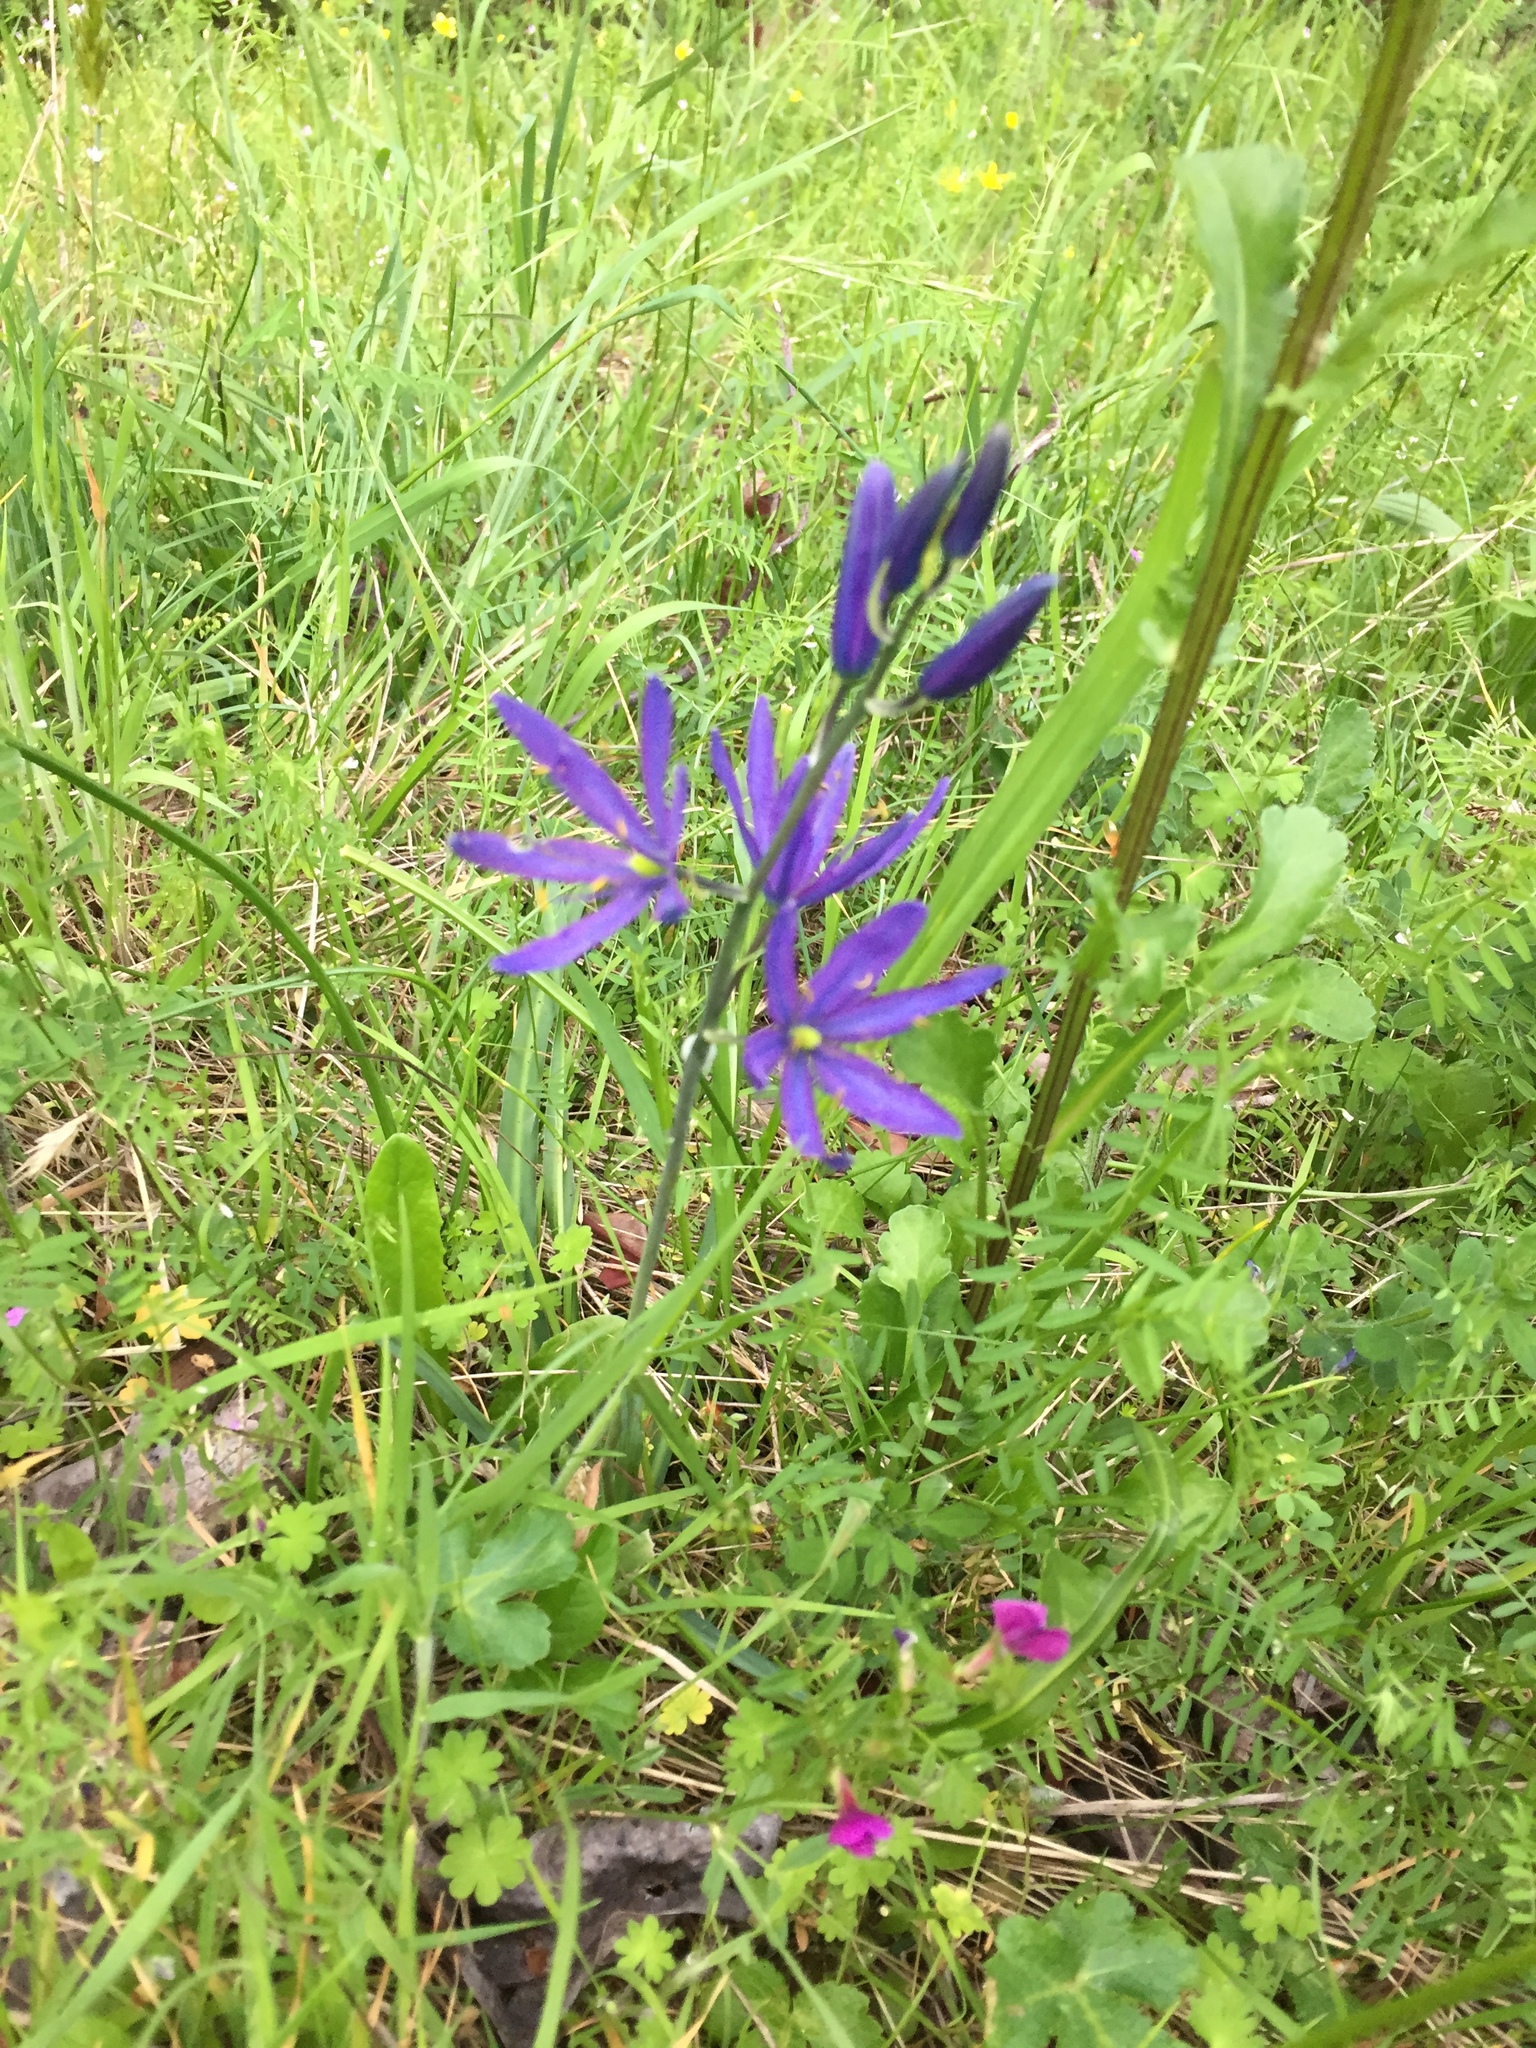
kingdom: Plantae
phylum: Tracheophyta
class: Liliopsida
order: Asparagales
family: Asparagaceae
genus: Camassia
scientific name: Camassia leichtlinii
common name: Leichtlin's camas
